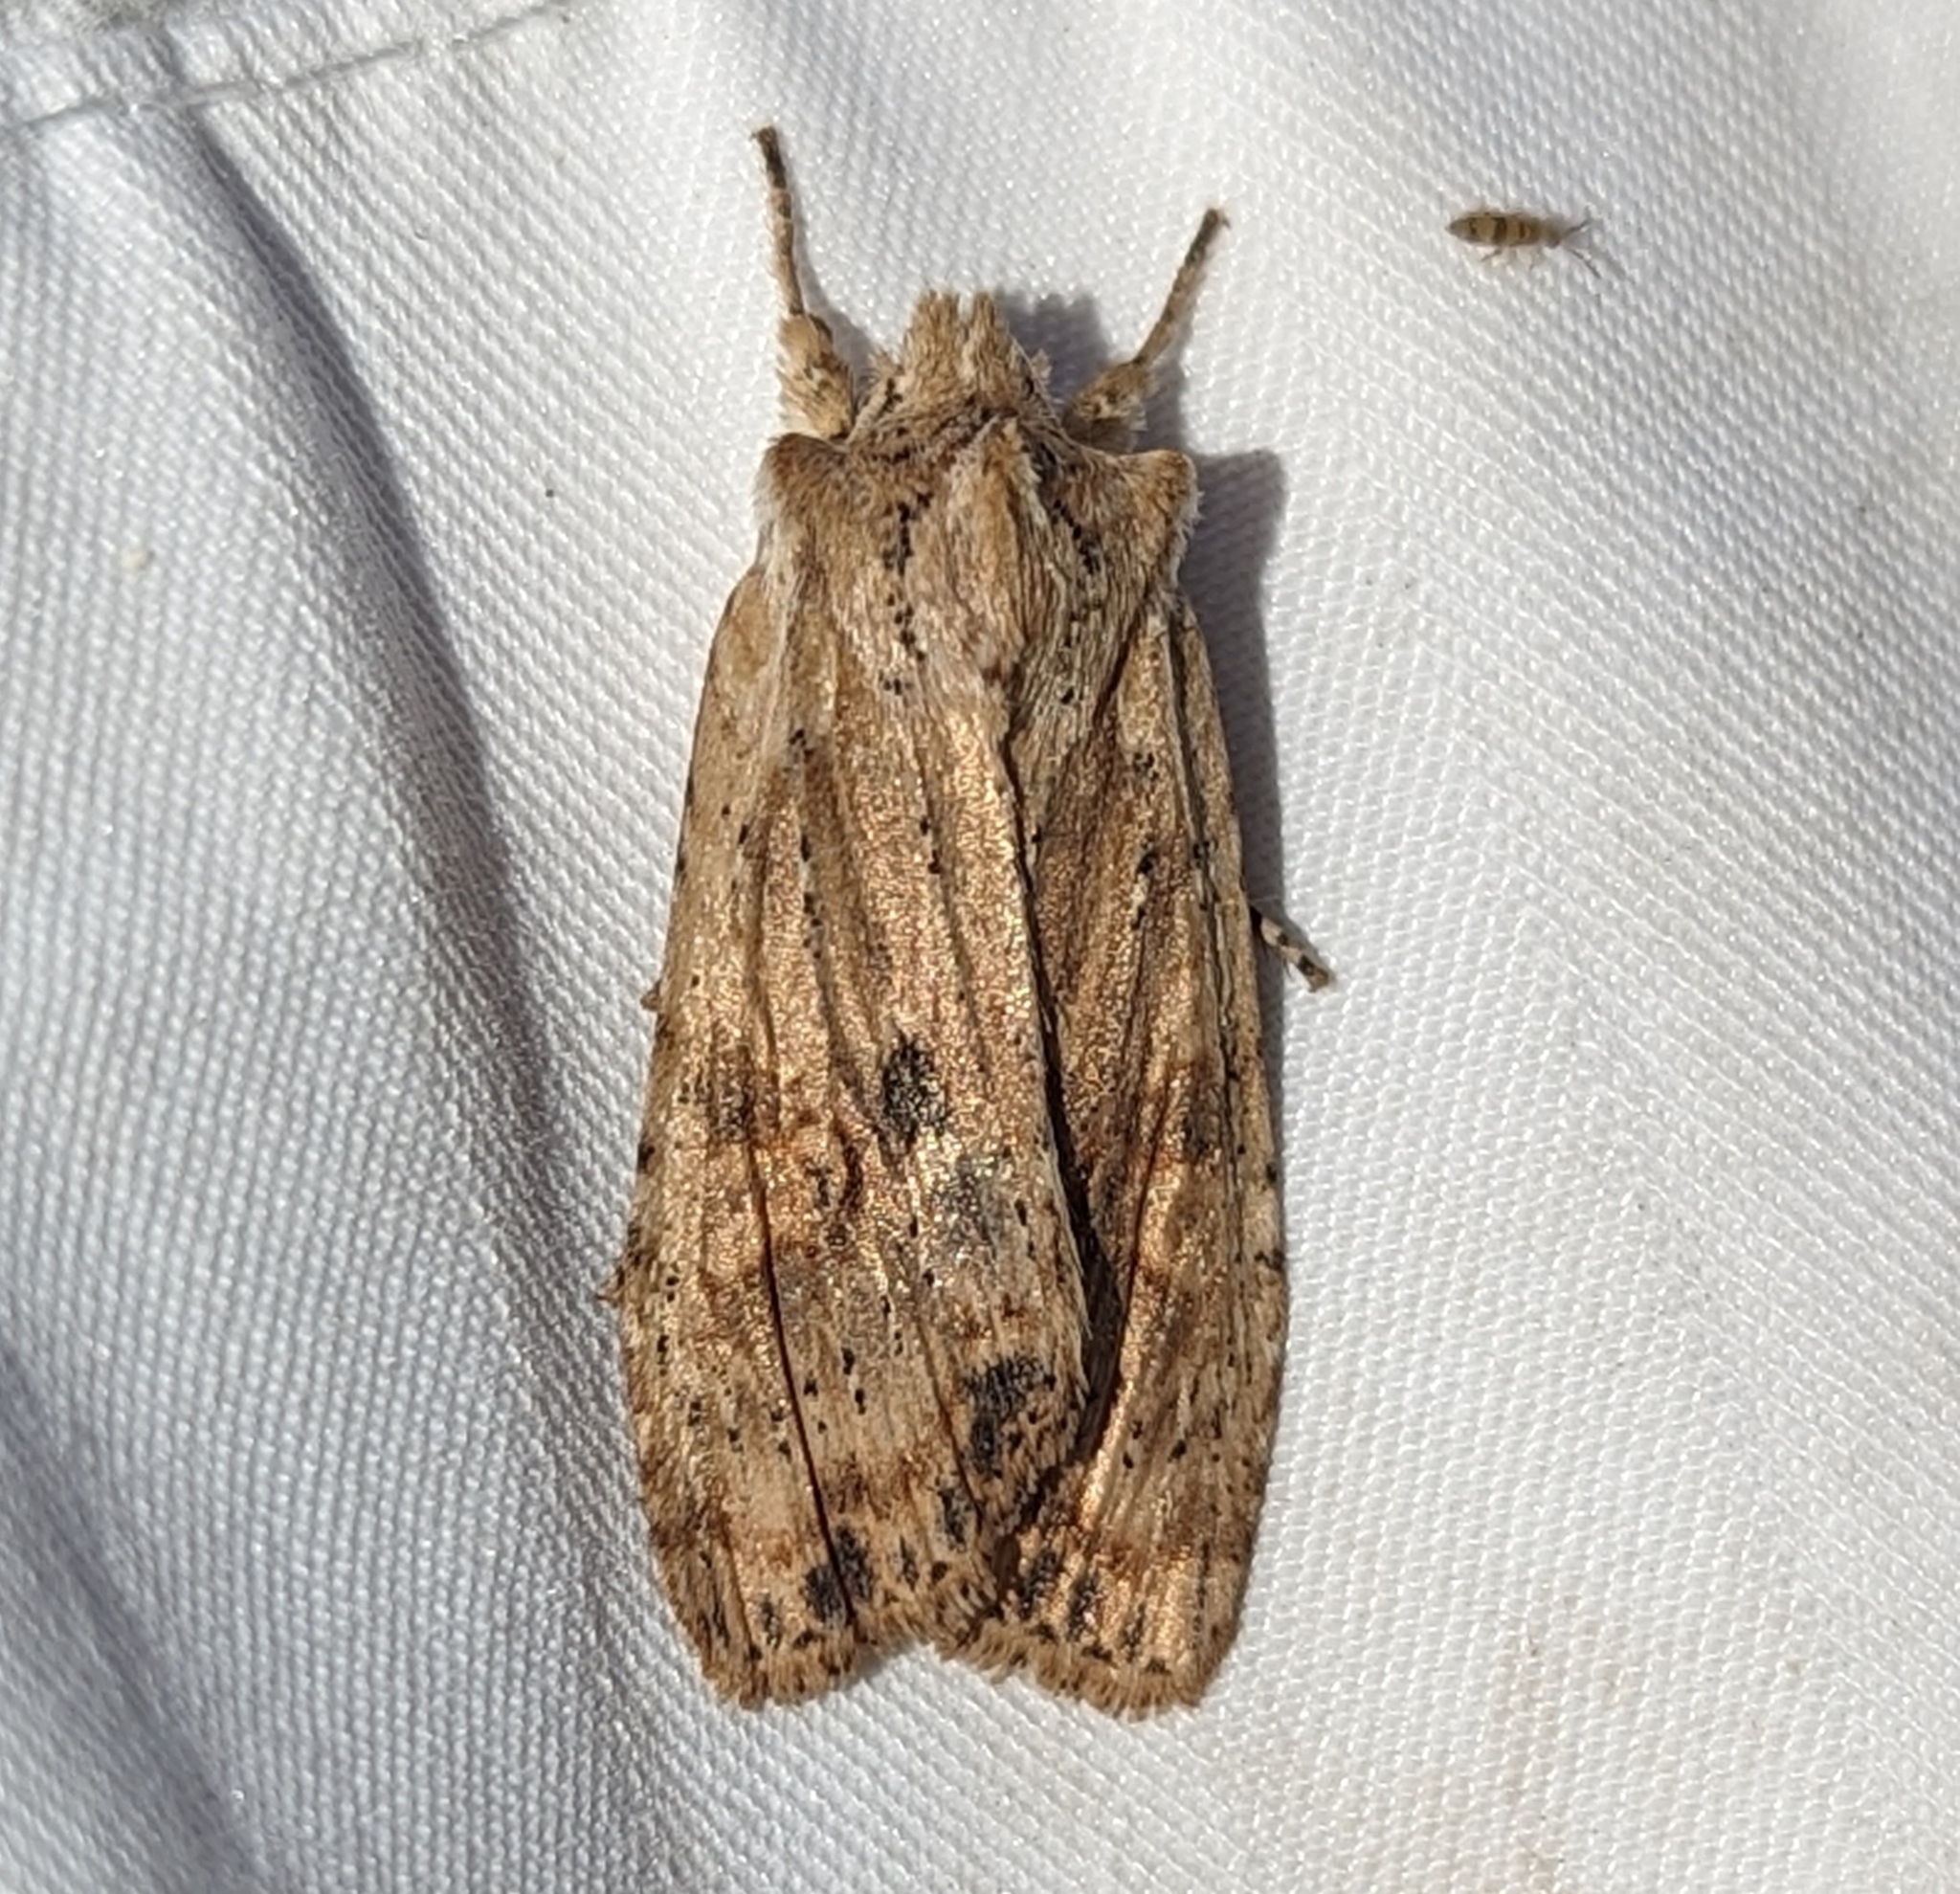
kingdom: Animalia
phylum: Arthropoda
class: Insecta
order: Lepidoptera
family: Noctuidae
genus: Lithophane
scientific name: Lithophane innominata
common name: Nameless pinion moth
